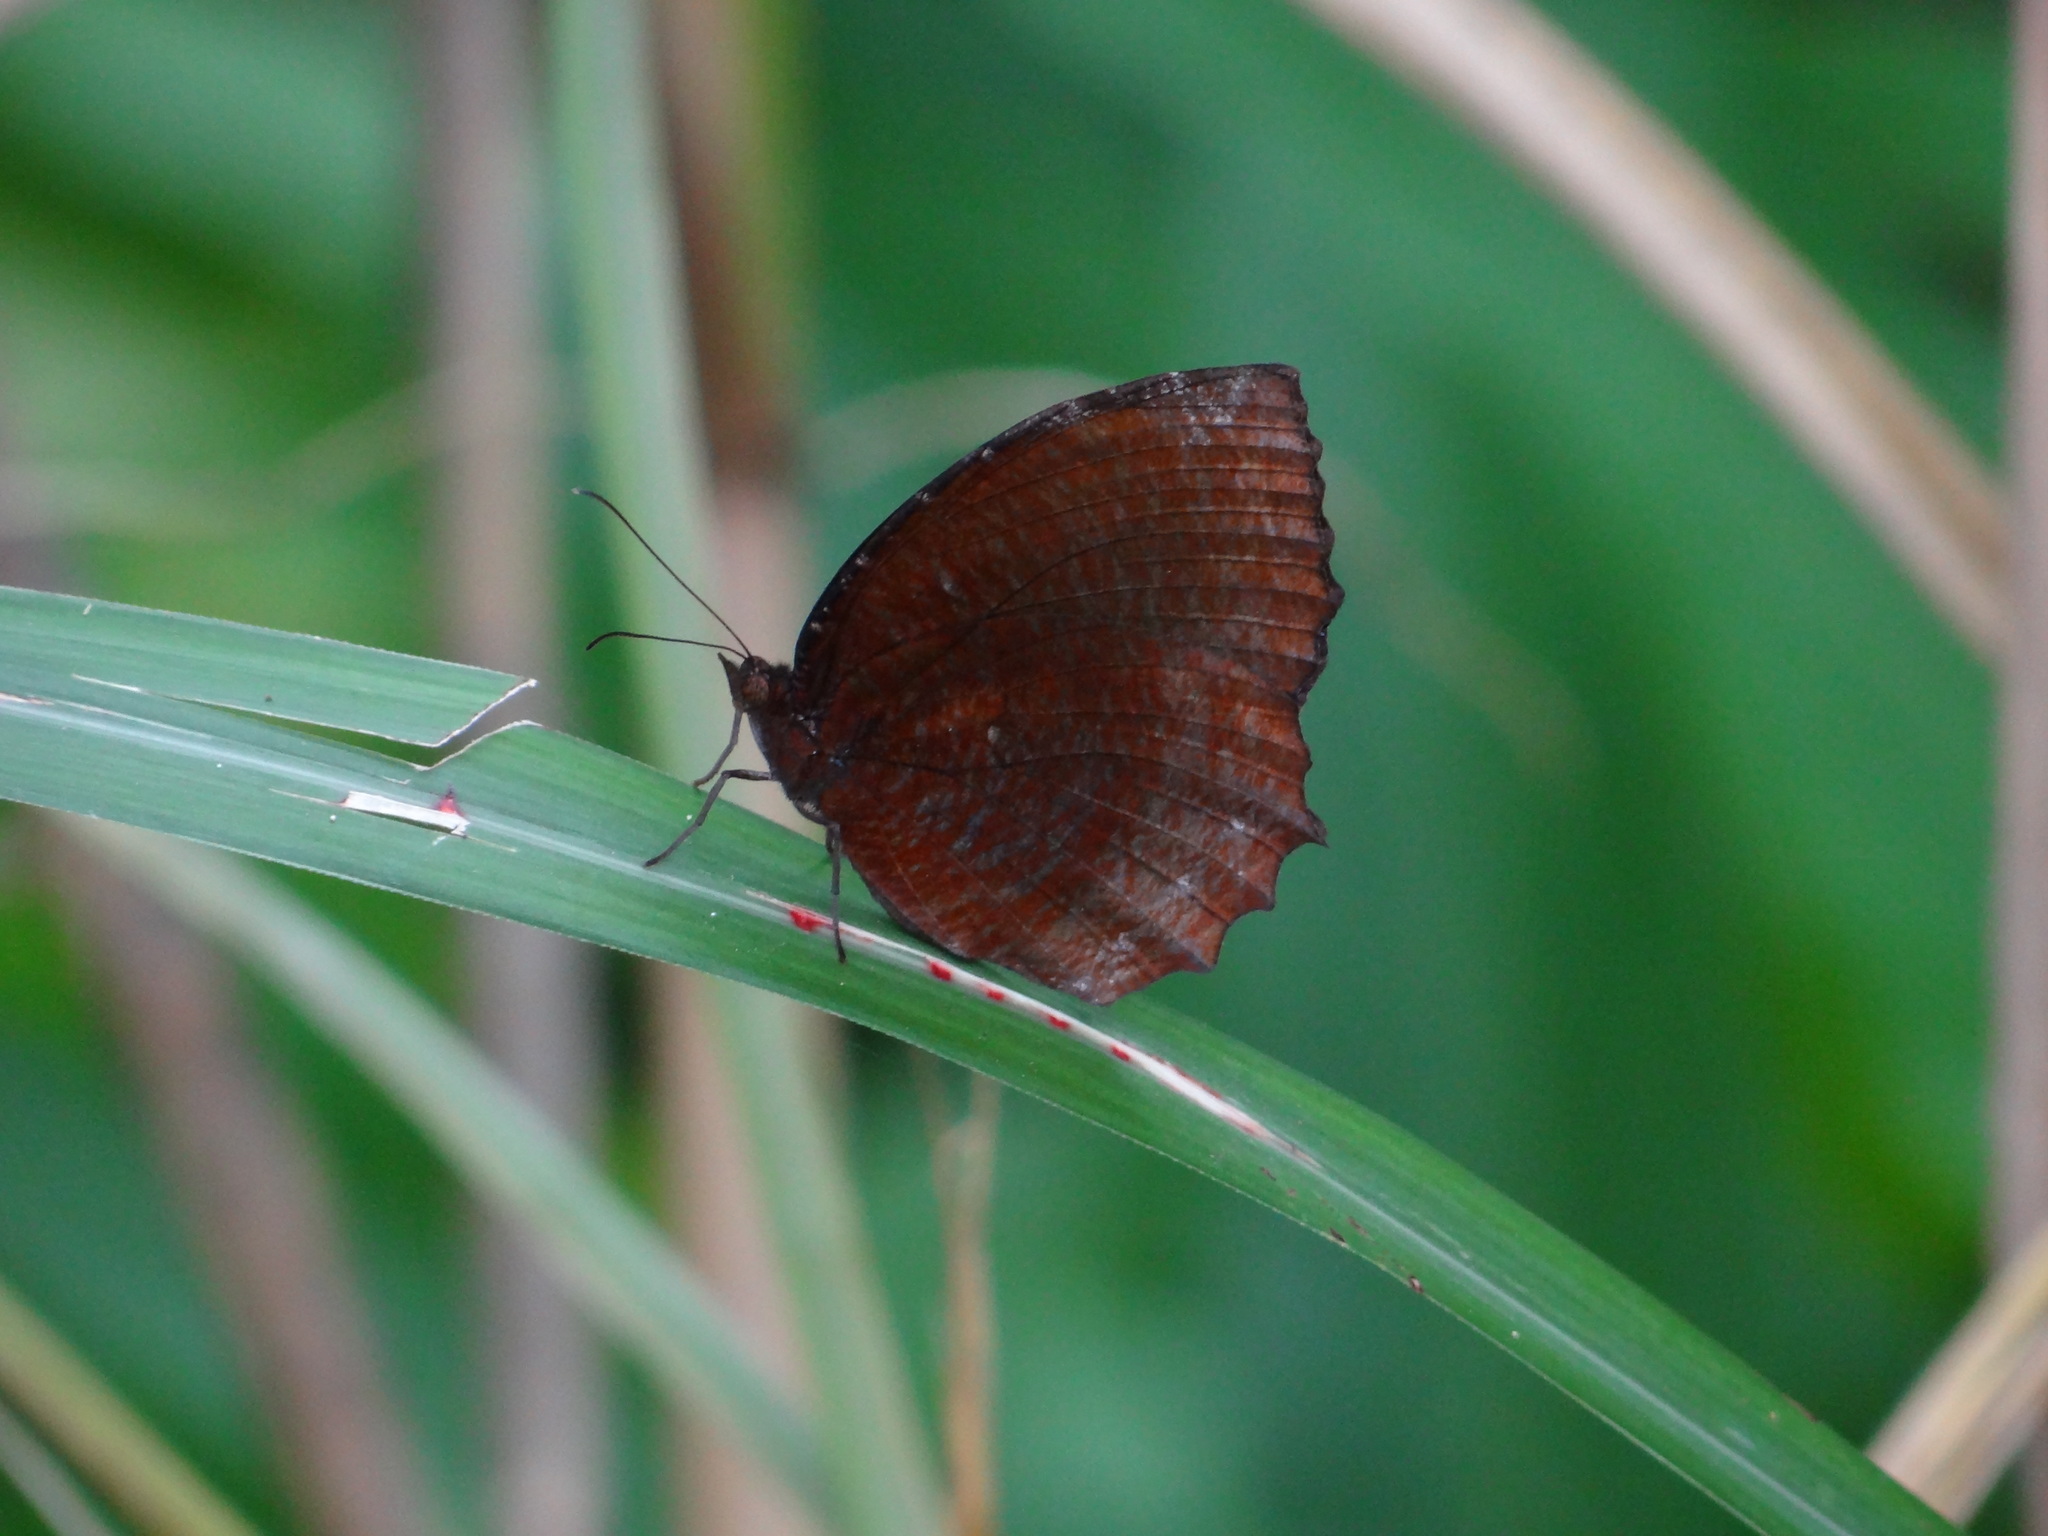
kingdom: Animalia
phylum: Arthropoda
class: Insecta
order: Lepidoptera
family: Nymphalidae
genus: Elymnias
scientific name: Elymnias hypermnestra
